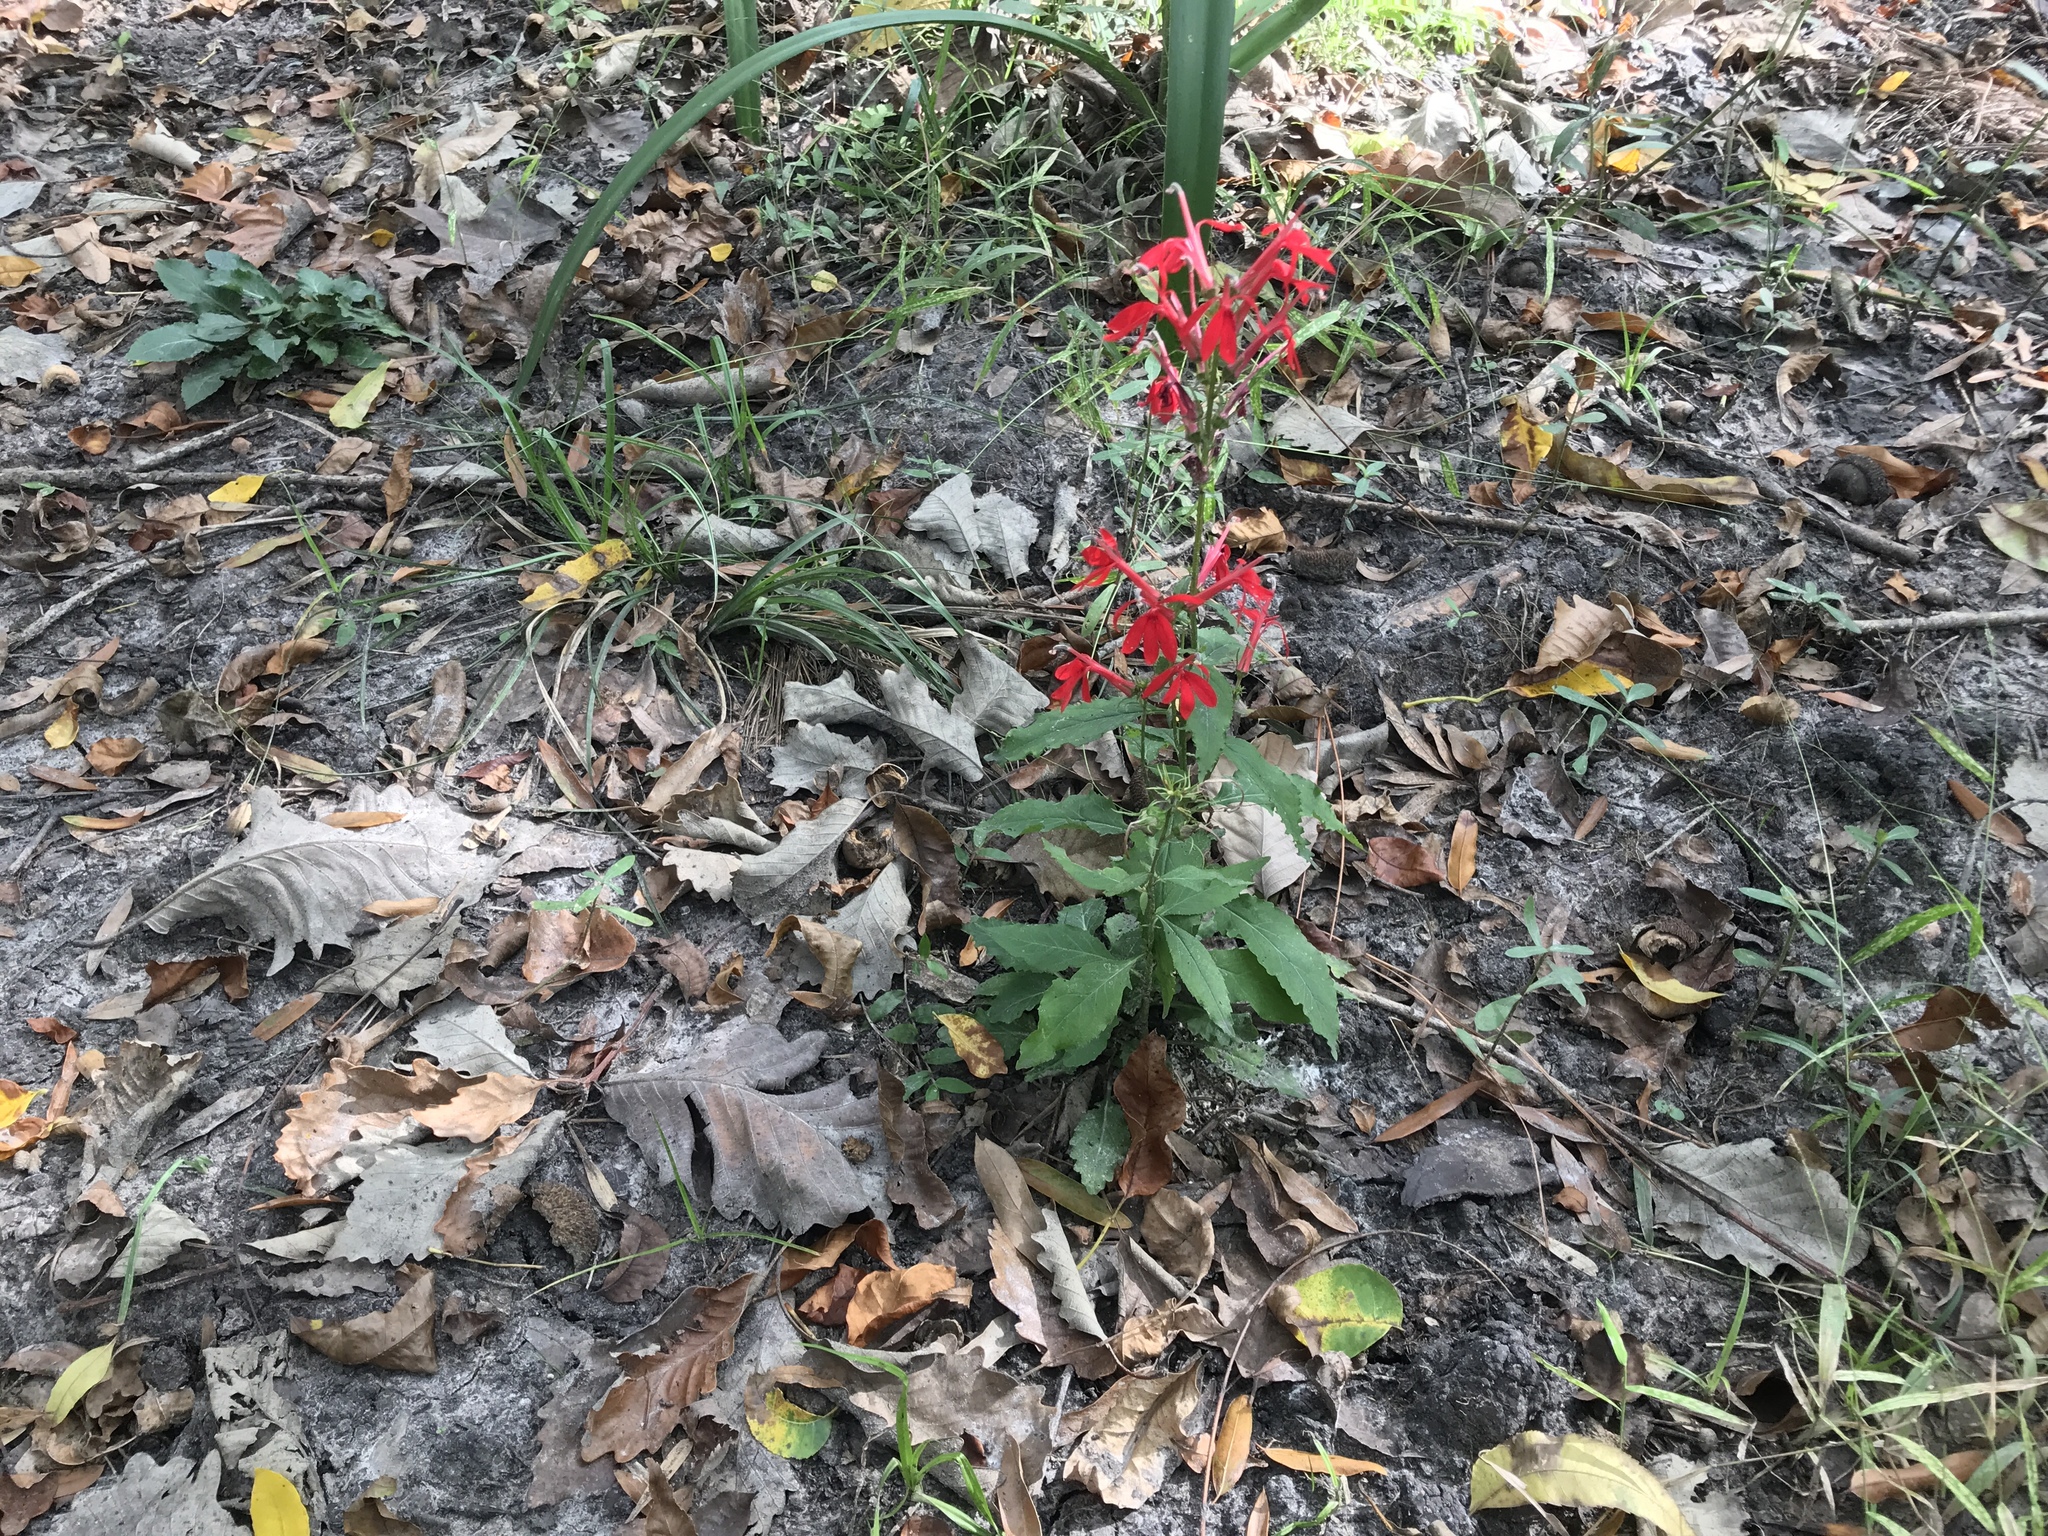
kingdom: Plantae
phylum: Tracheophyta
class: Magnoliopsida
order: Asterales
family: Campanulaceae
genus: Lobelia
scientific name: Lobelia cardinalis
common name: Cardinal flower
